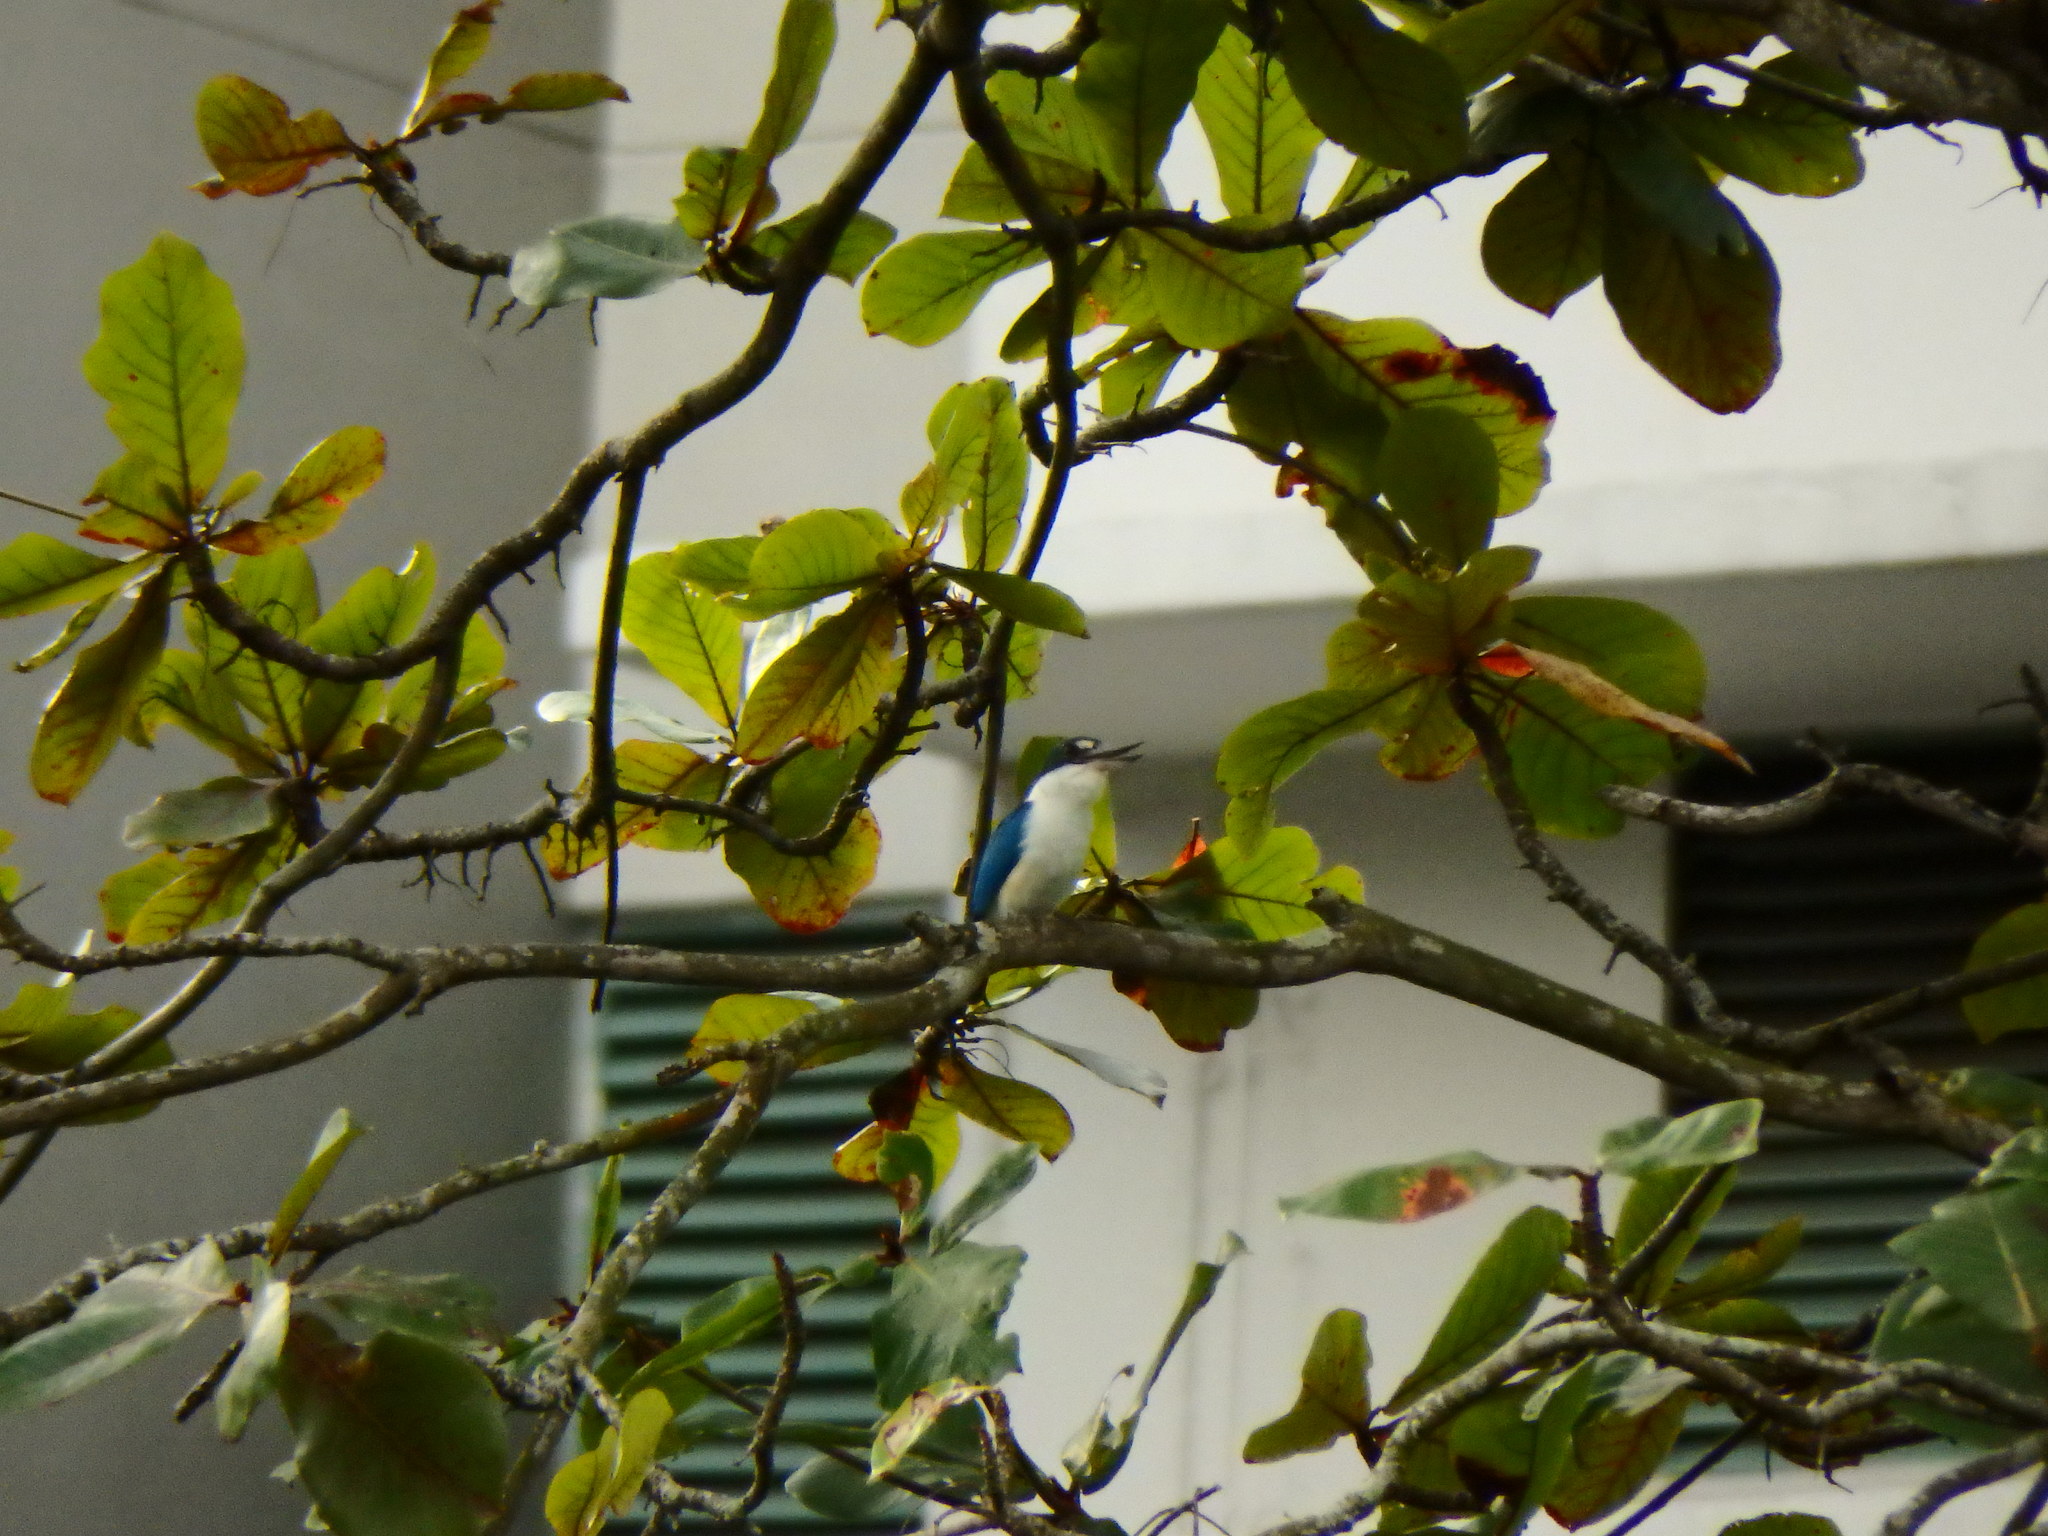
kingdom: Animalia
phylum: Chordata
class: Aves
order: Coraciiformes
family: Alcedinidae
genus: Todiramphus
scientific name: Todiramphus chloris
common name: Collared kingfisher
